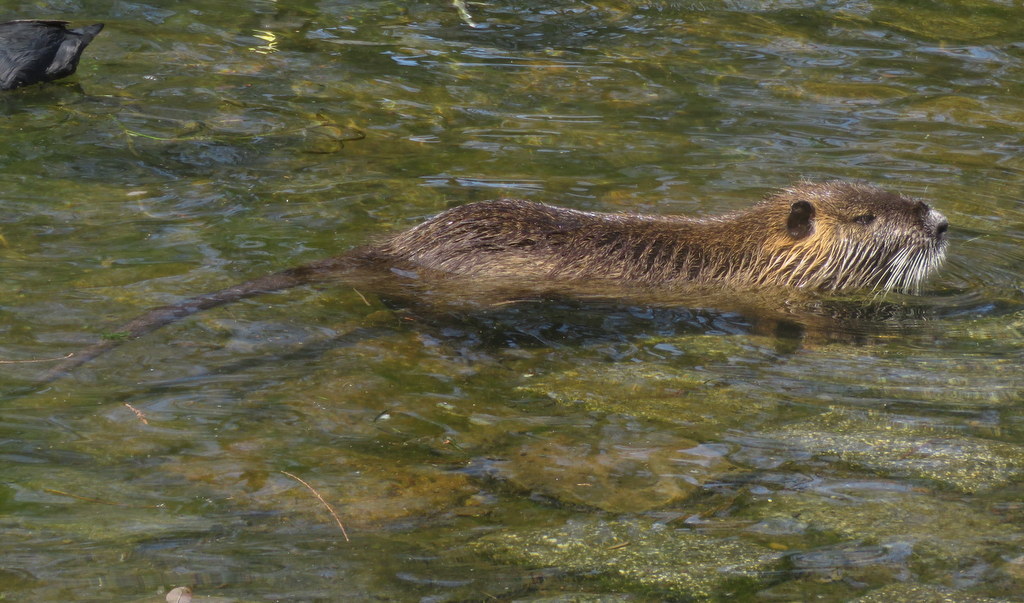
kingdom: Animalia
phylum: Chordata
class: Mammalia
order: Rodentia
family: Myocastoridae
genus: Myocastor
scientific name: Myocastor coypus
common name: Coypu
